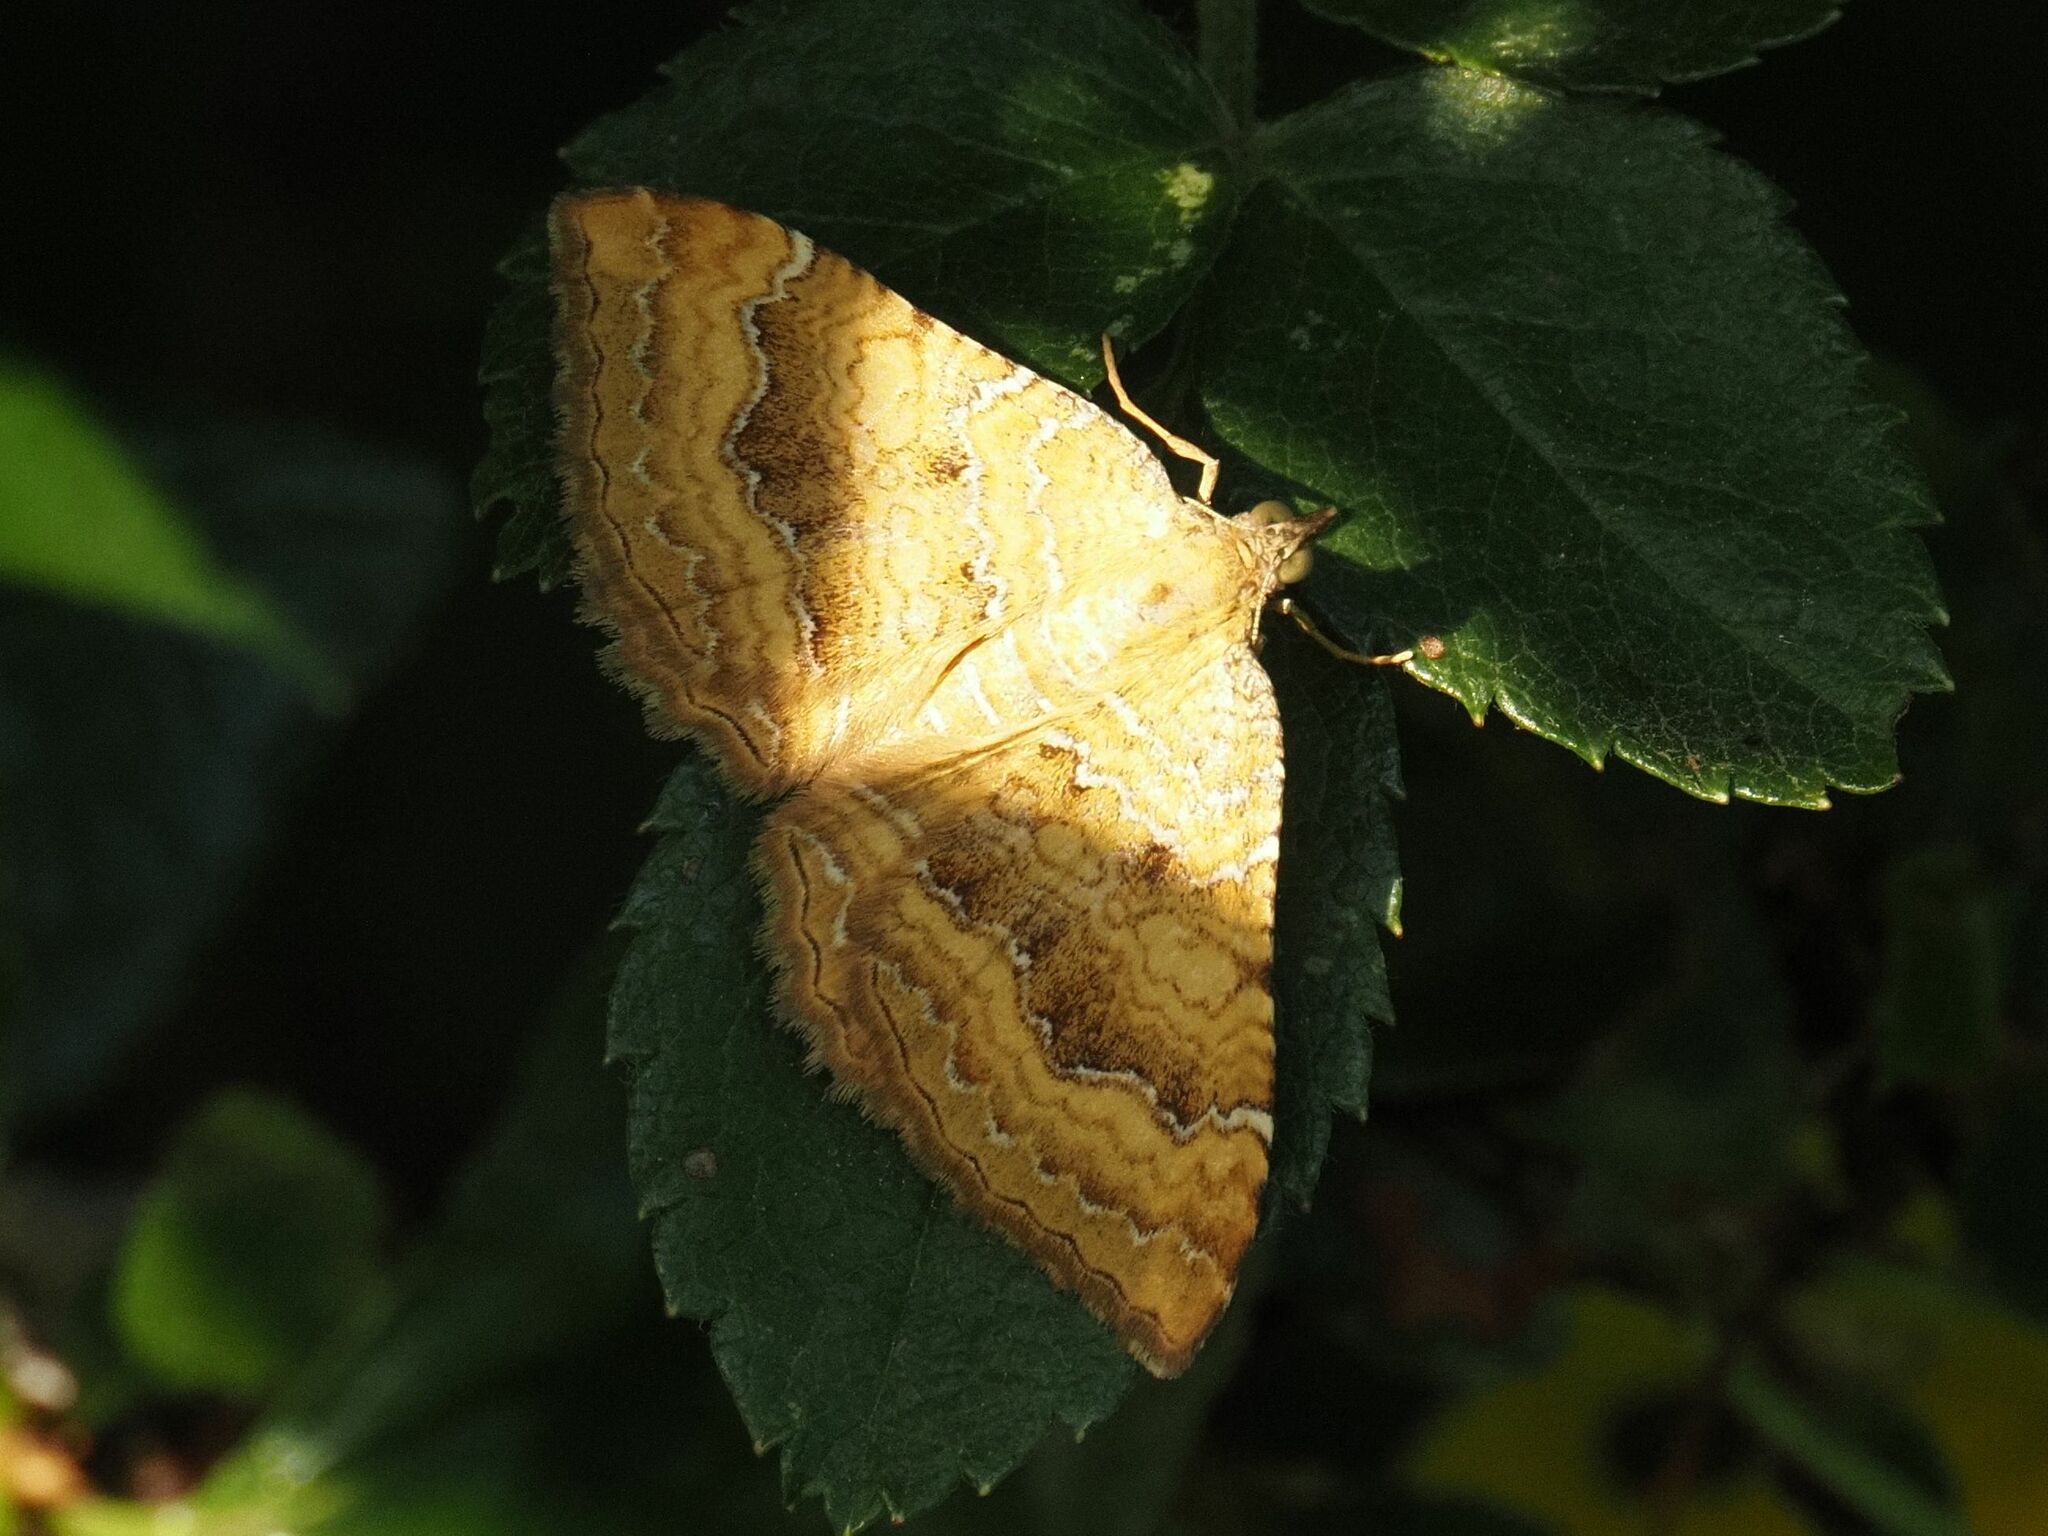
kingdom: Animalia
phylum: Arthropoda
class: Insecta
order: Lepidoptera
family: Geometridae
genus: Camptogramma
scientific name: Camptogramma bilineata
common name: Yellow shell
